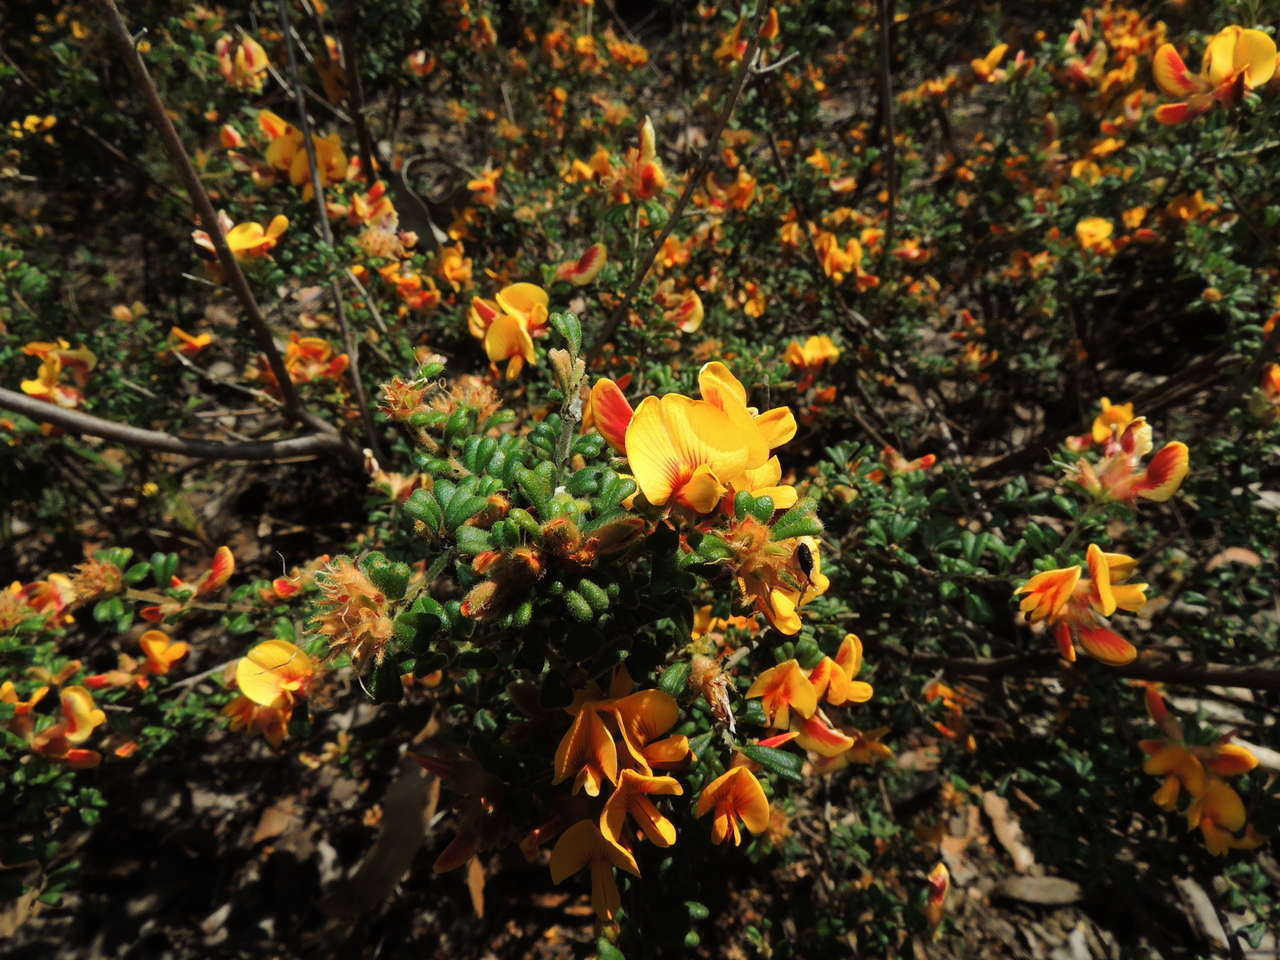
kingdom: Plantae
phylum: Tracheophyta
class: Magnoliopsida
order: Fabales
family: Fabaceae
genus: Pultenaea
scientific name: Pultenaea scabra
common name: Rough bush-pea
